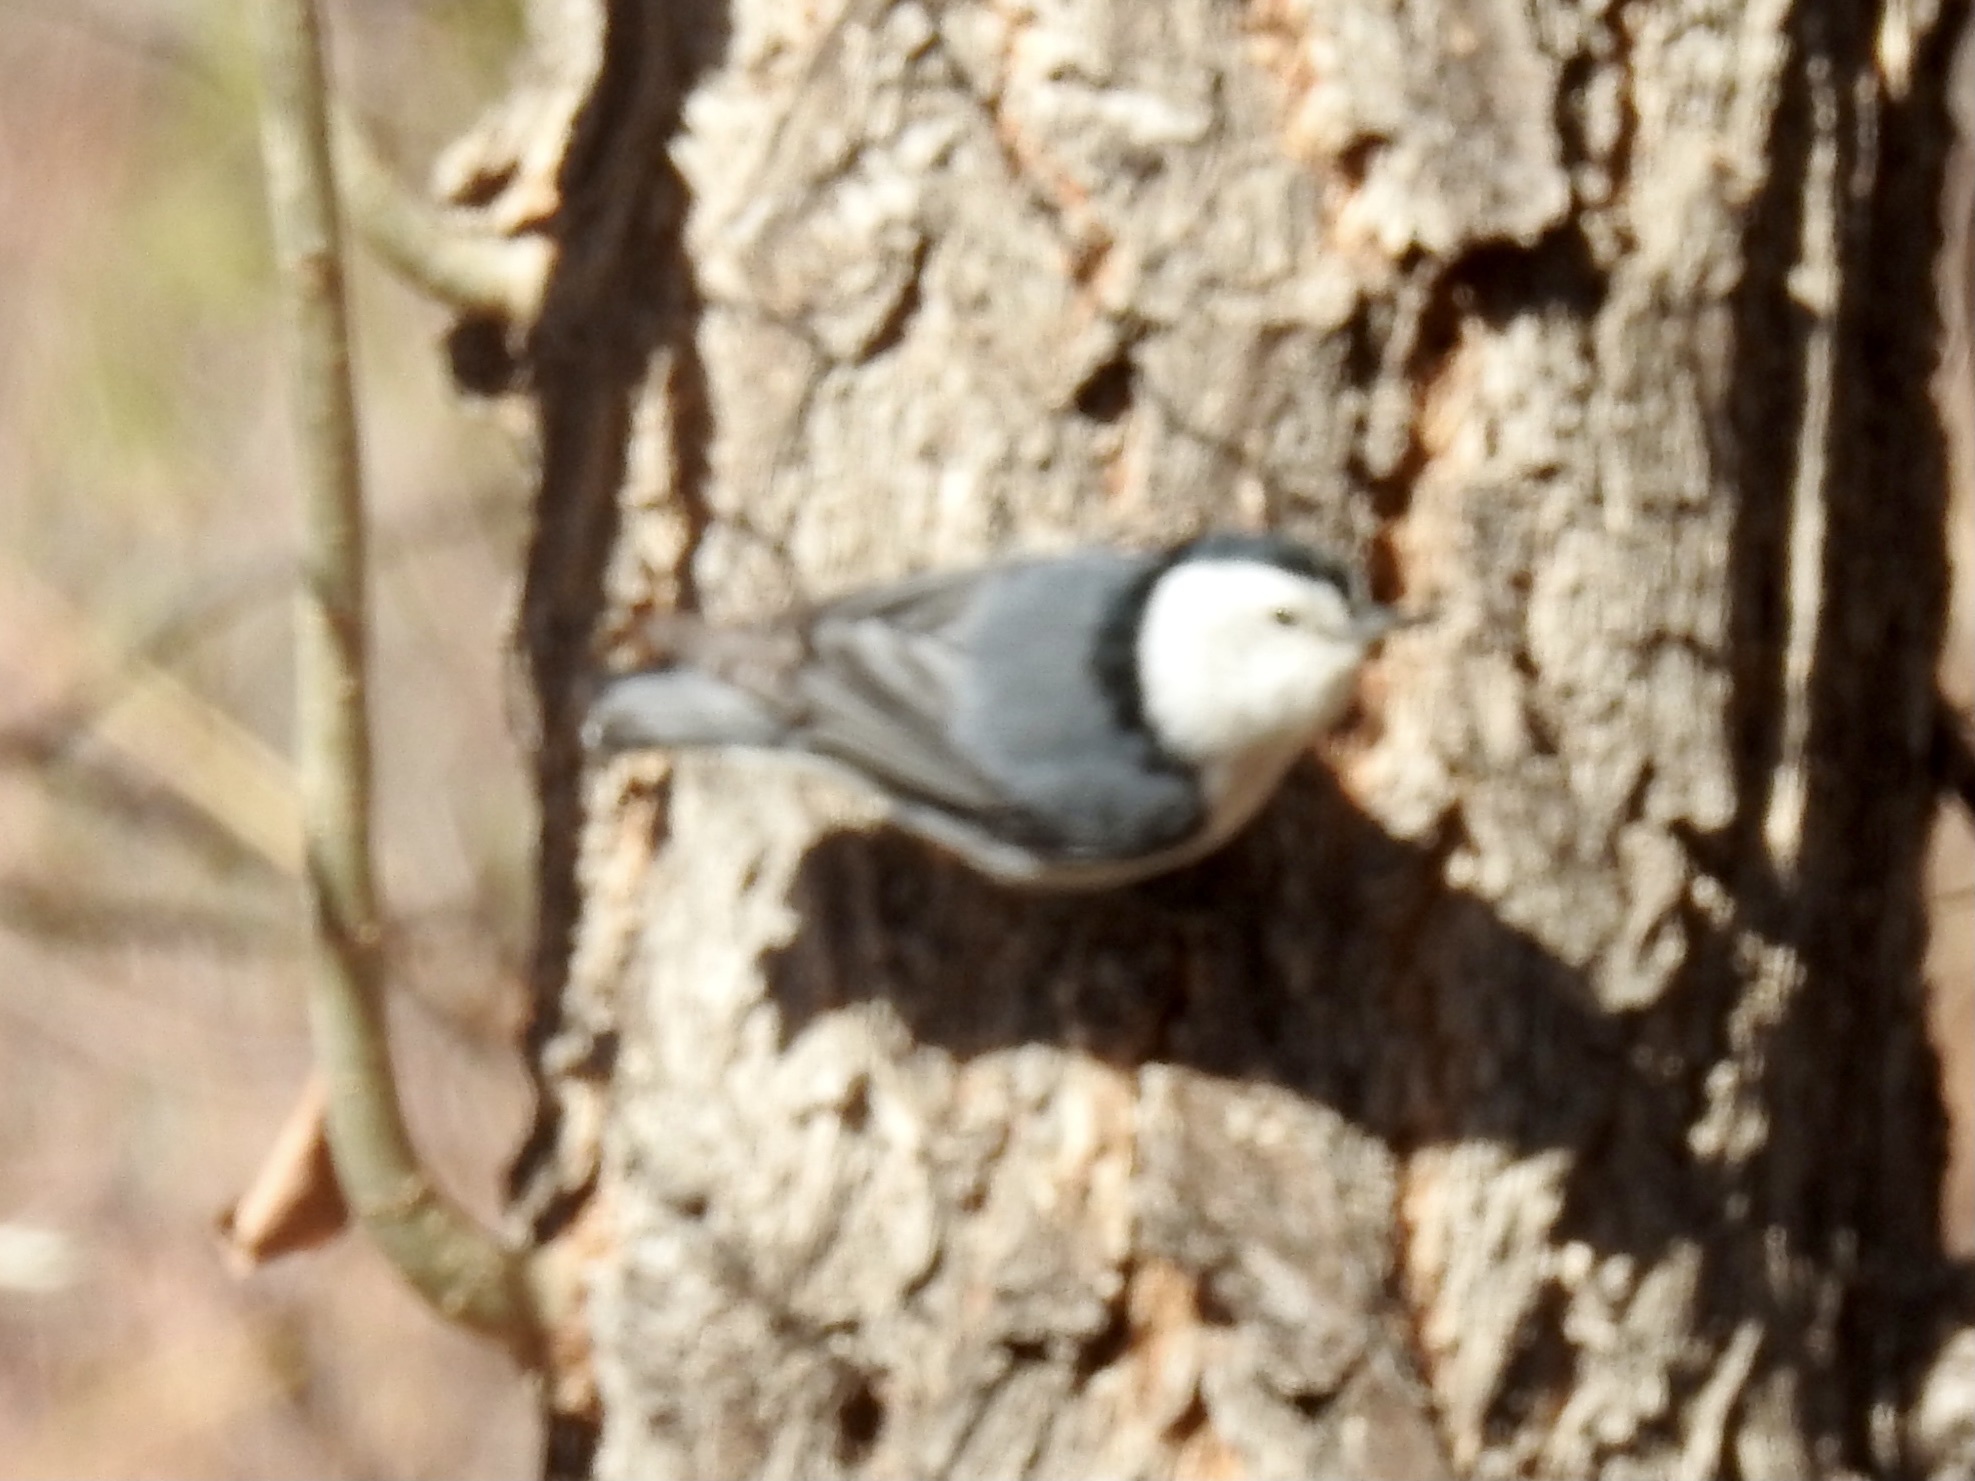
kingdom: Animalia
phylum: Chordata
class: Aves
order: Passeriformes
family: Sittidae
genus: Sitta
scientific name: Sitta carolinensis
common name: White-breasted nuthatch
